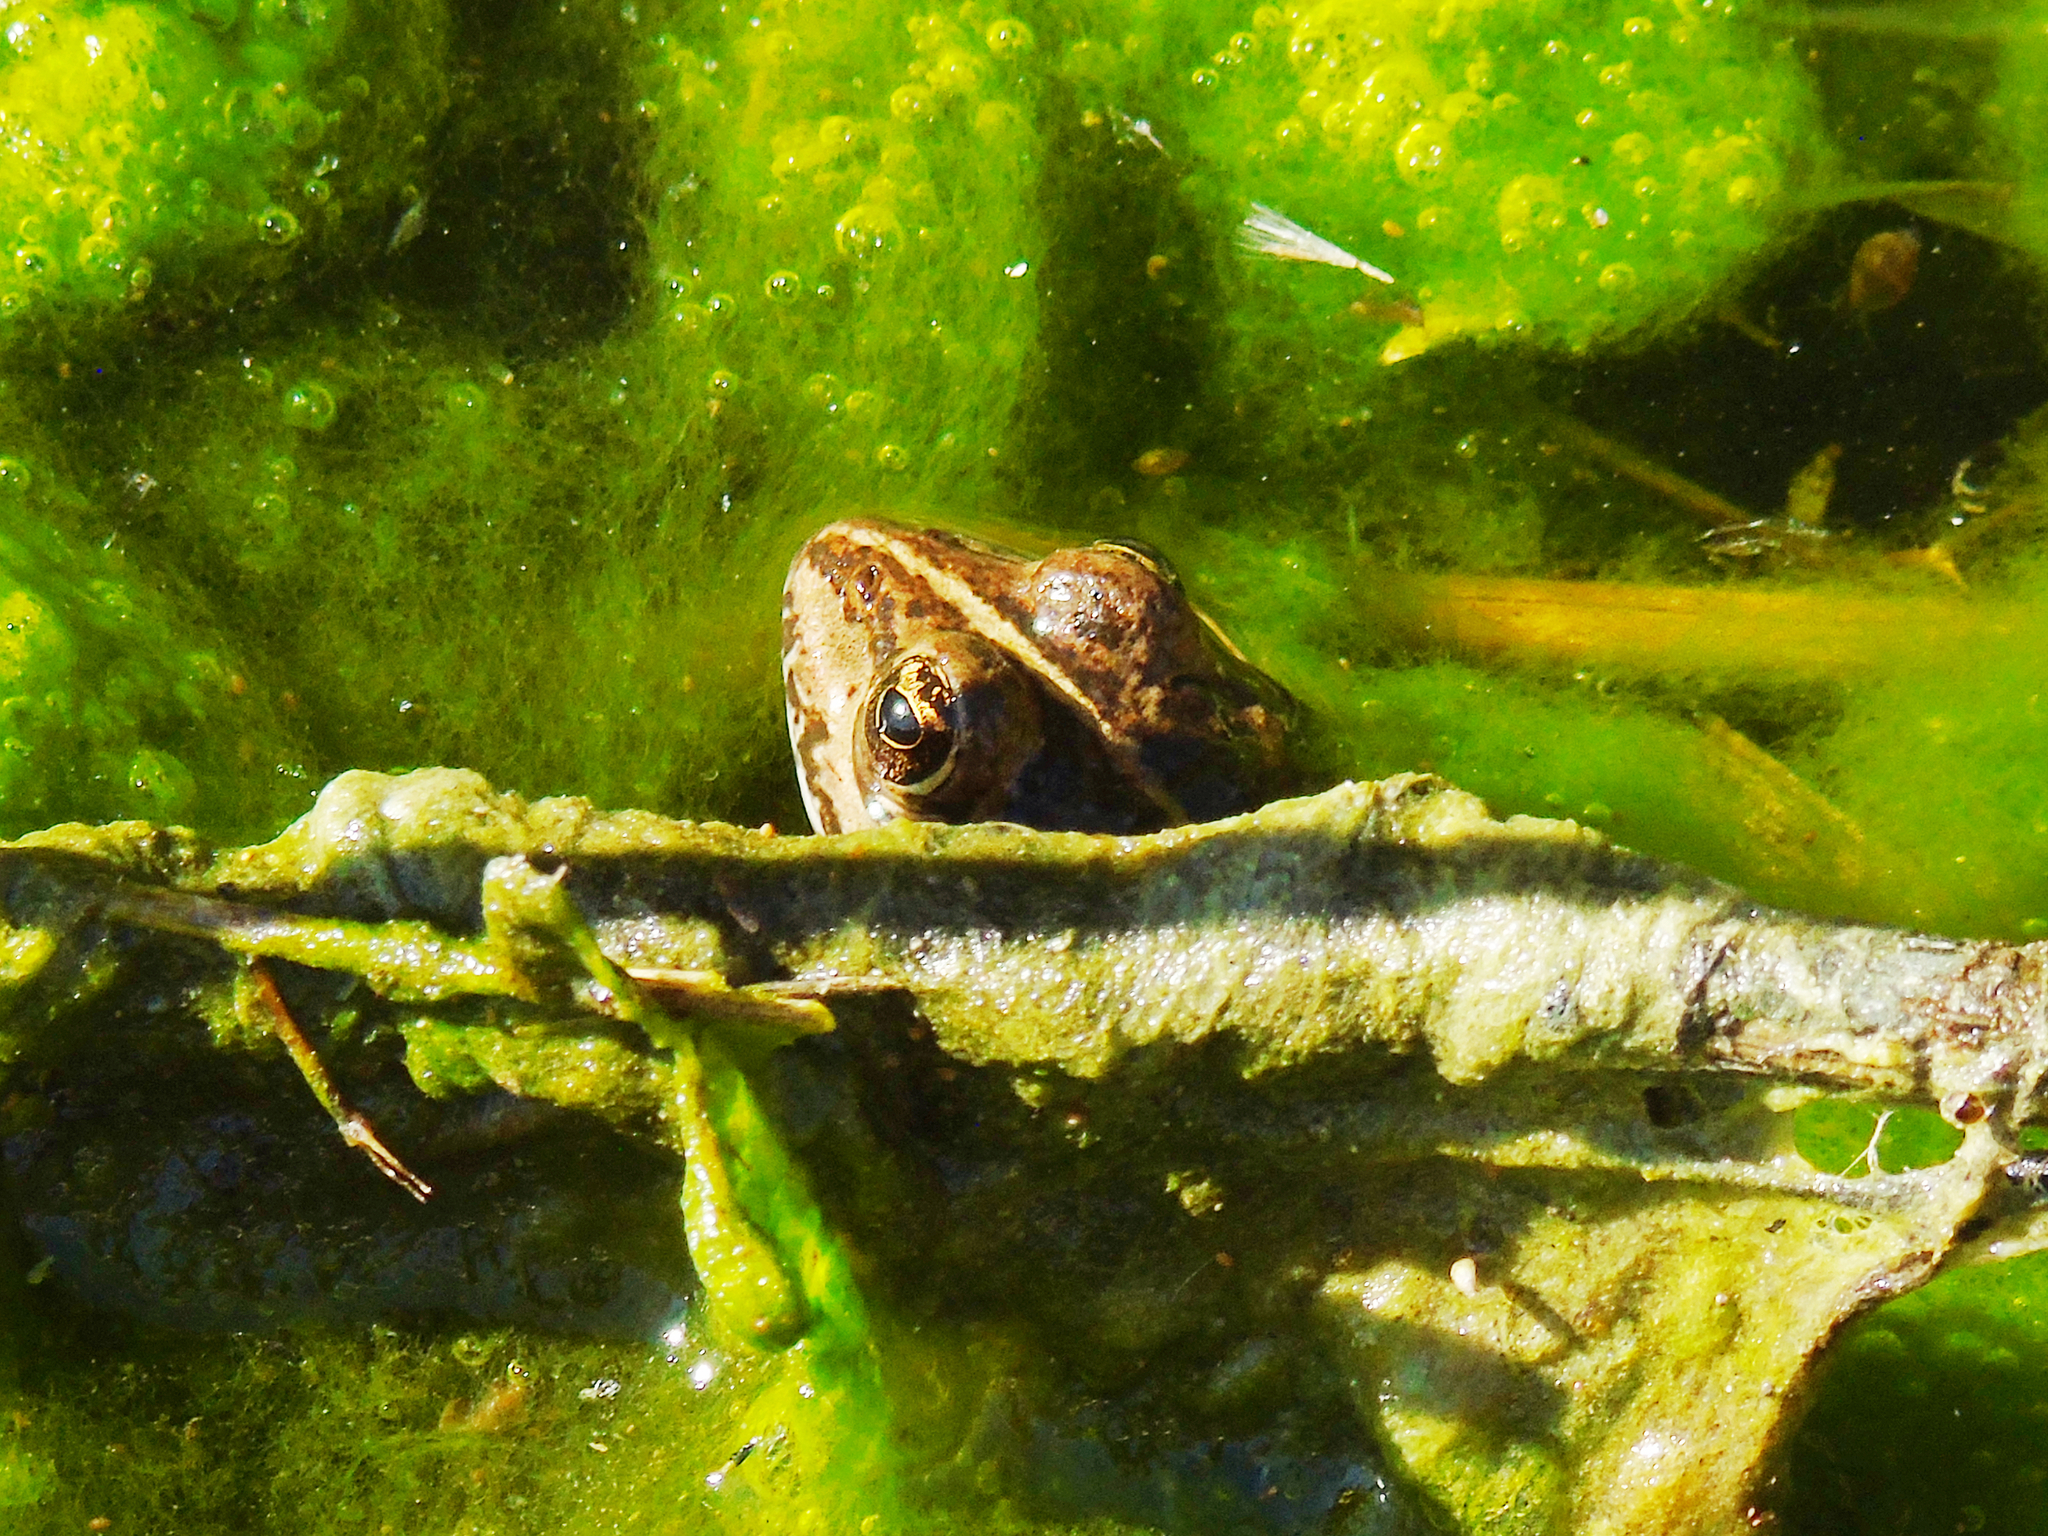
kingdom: Animalia
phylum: Chordata
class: Amphibia
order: Anura
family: Ranidae
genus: Pelophylax
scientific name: Pelophylax ridibundus
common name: Marsh frog
